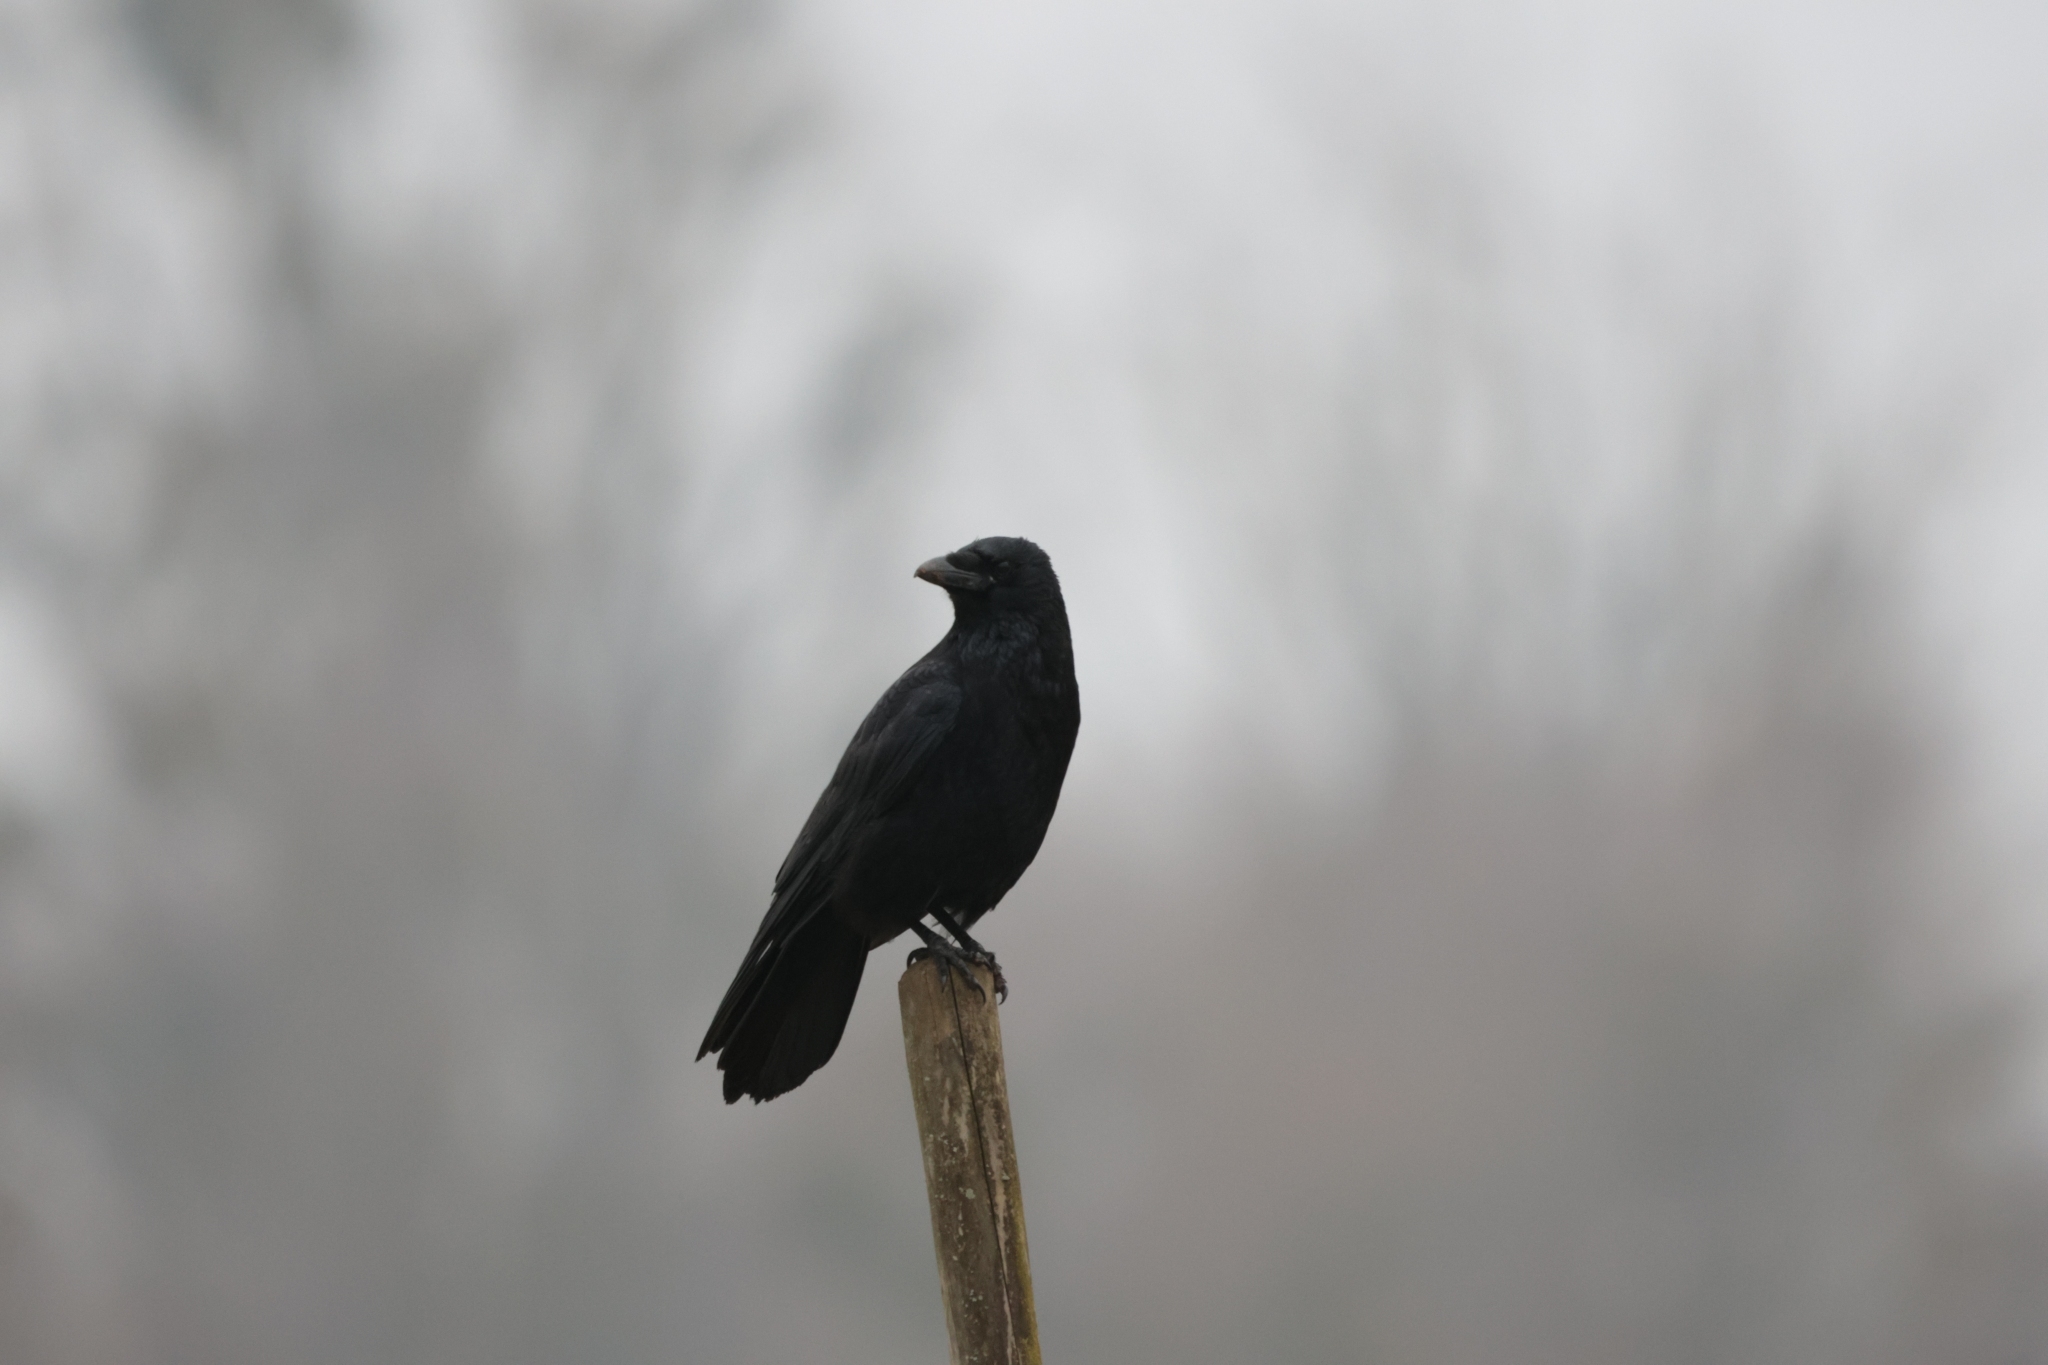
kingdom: Animalia
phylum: Chordata
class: Aves
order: Passeriformes
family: Corvidae
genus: Corvus
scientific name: Corvus corone
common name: Carrion crow
